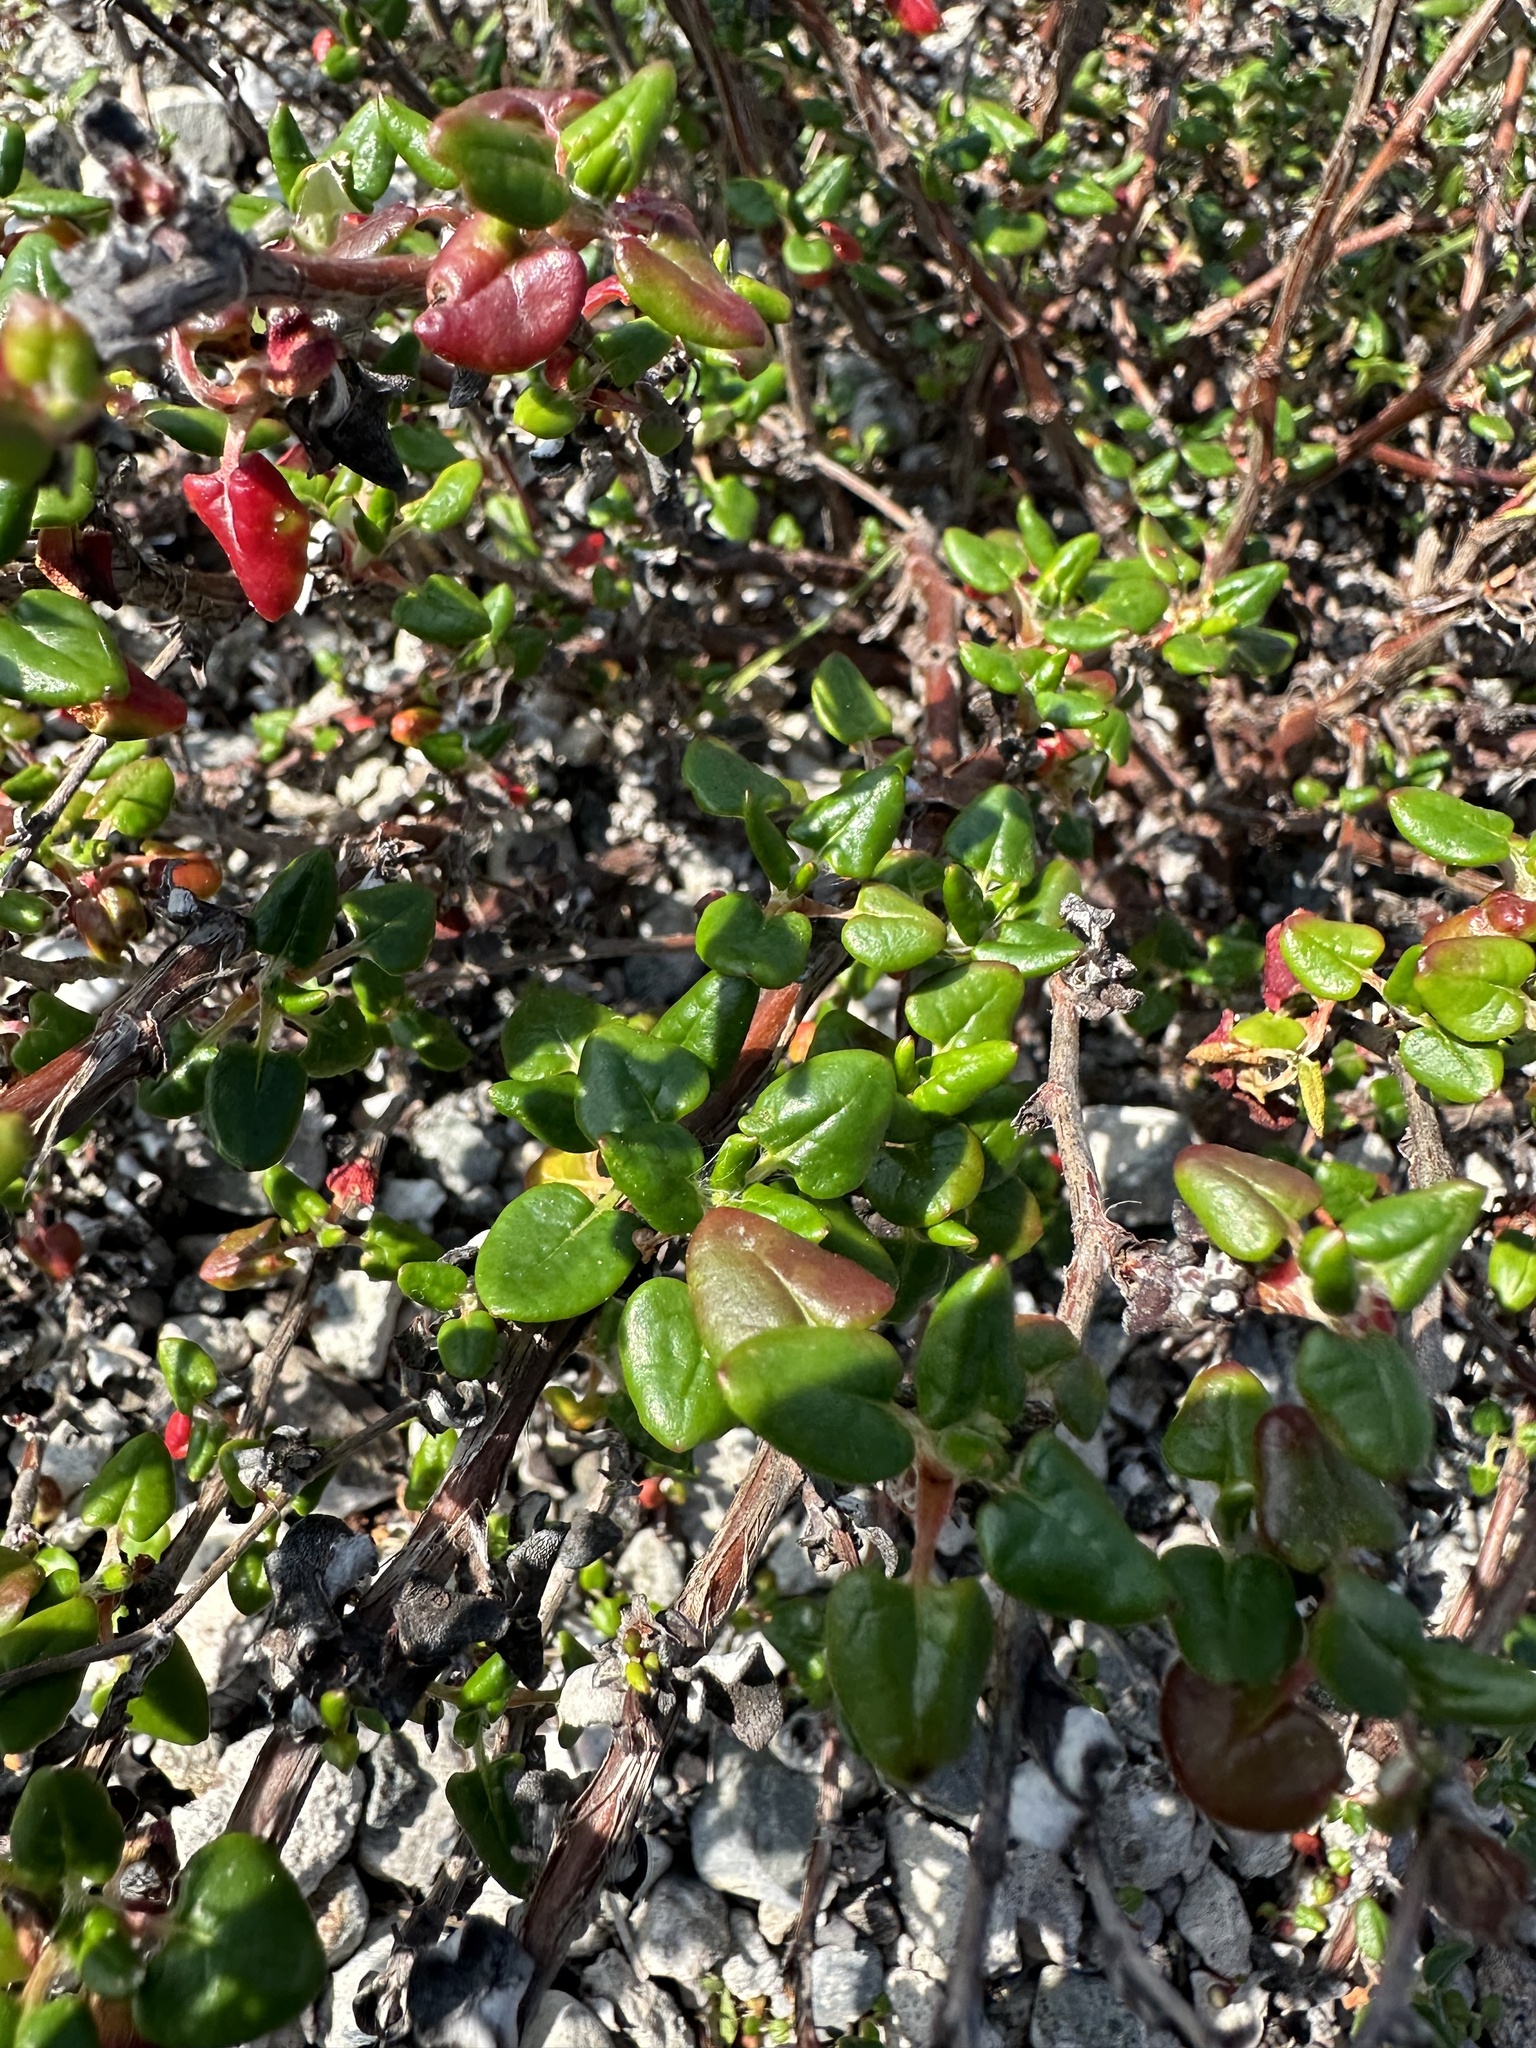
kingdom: Plantae
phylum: Tracheophyta
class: Magnoliopsida
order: Caryophyllales
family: Polygonaceae
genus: Eriogonum
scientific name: Eriogonum parvifolium
